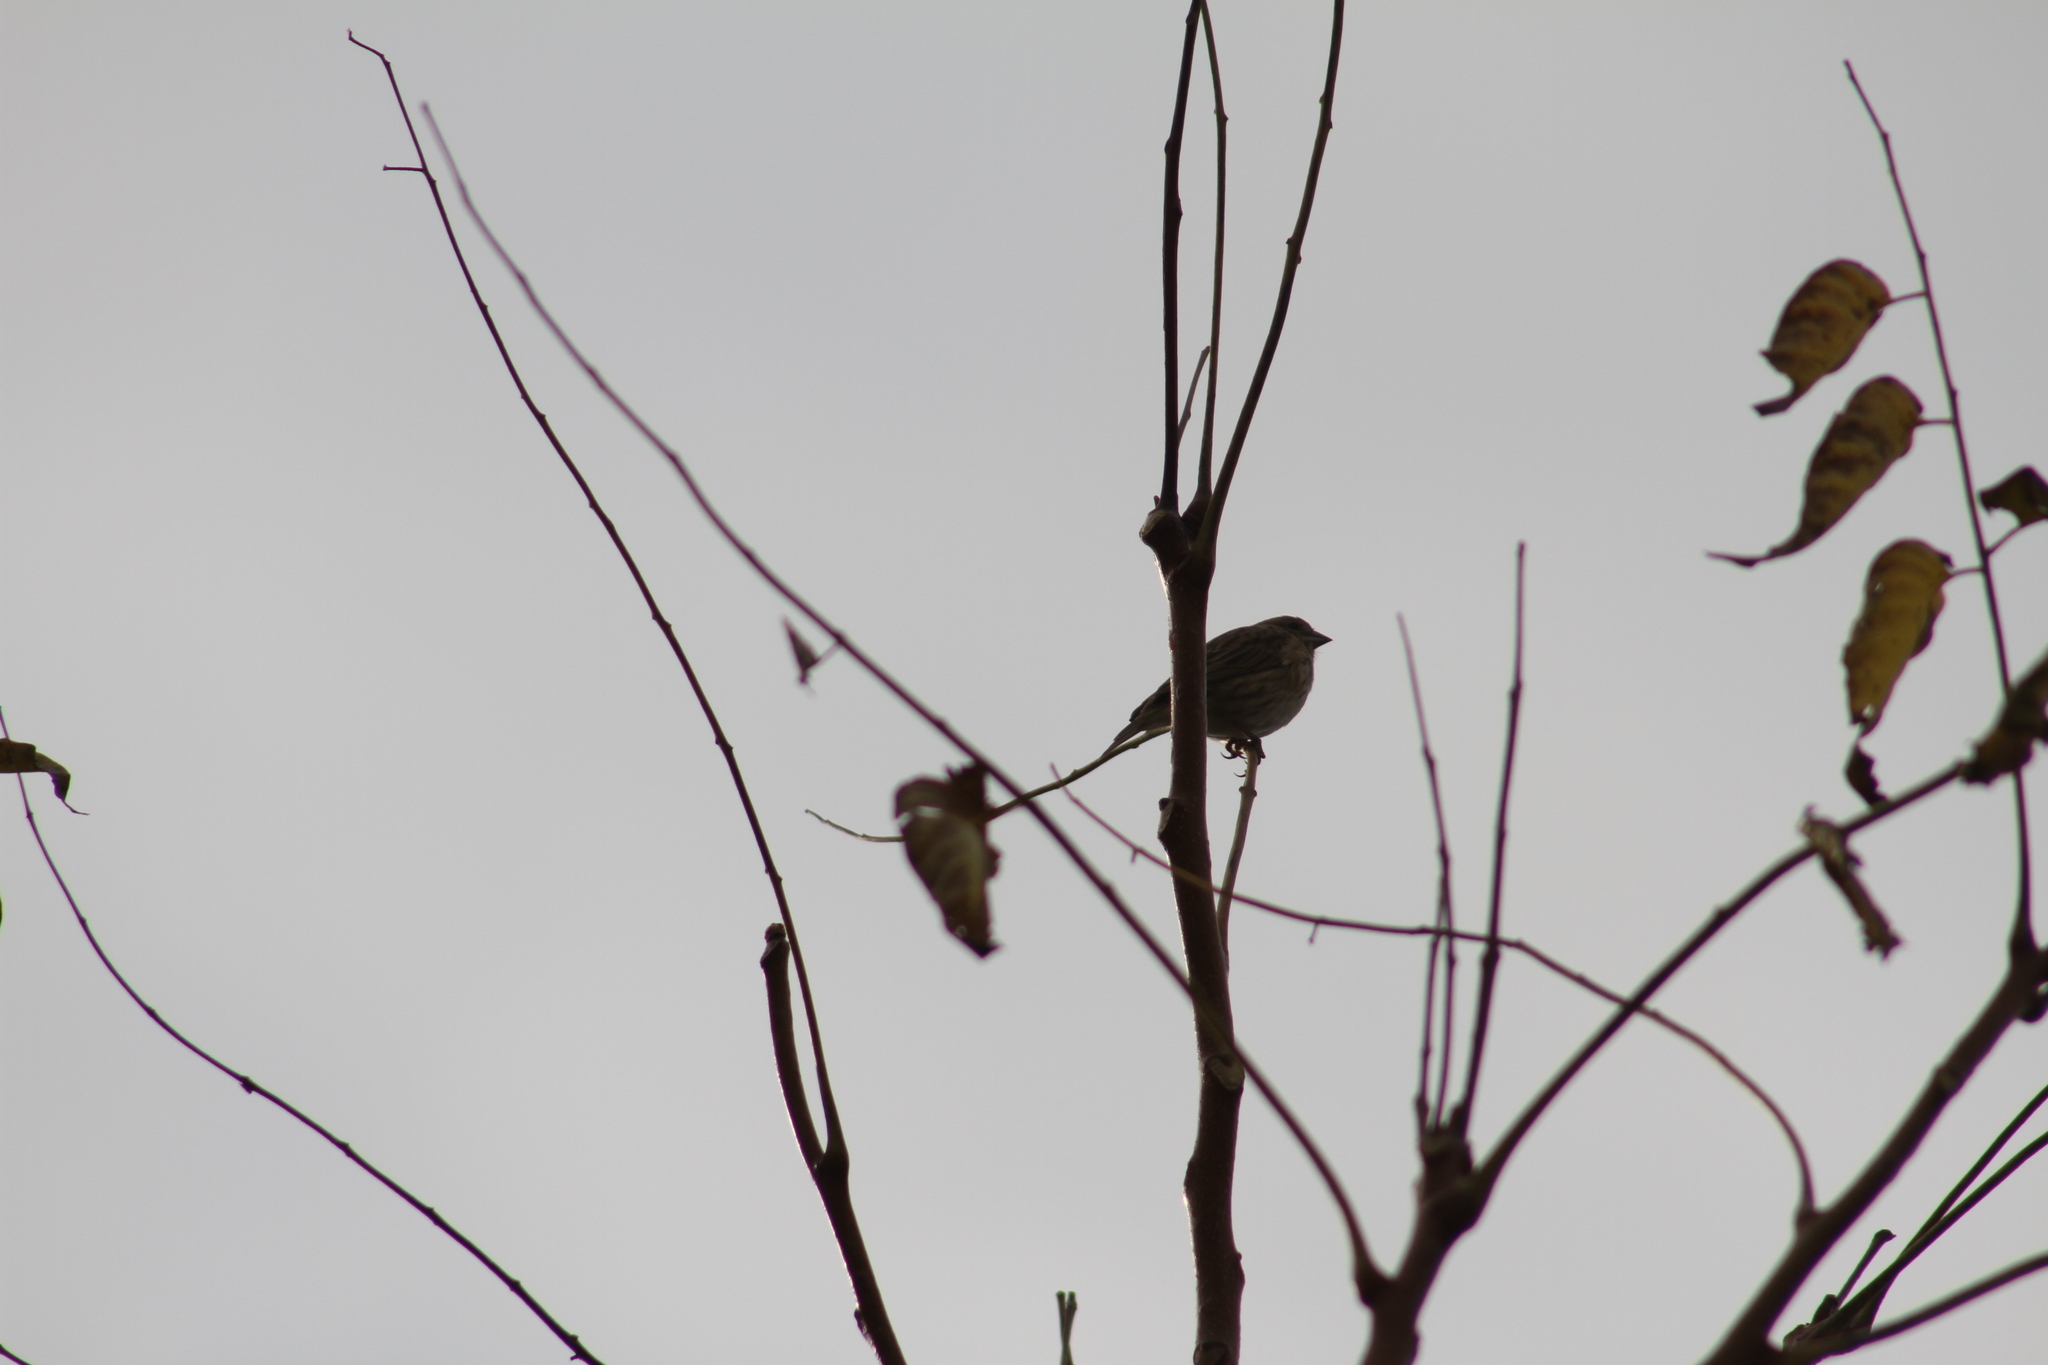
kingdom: Animalia
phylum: Chordata
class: Aves
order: Passeriformes
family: Thraupidae
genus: Sicalis
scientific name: Sicalis flaveola
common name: Saffron finch
